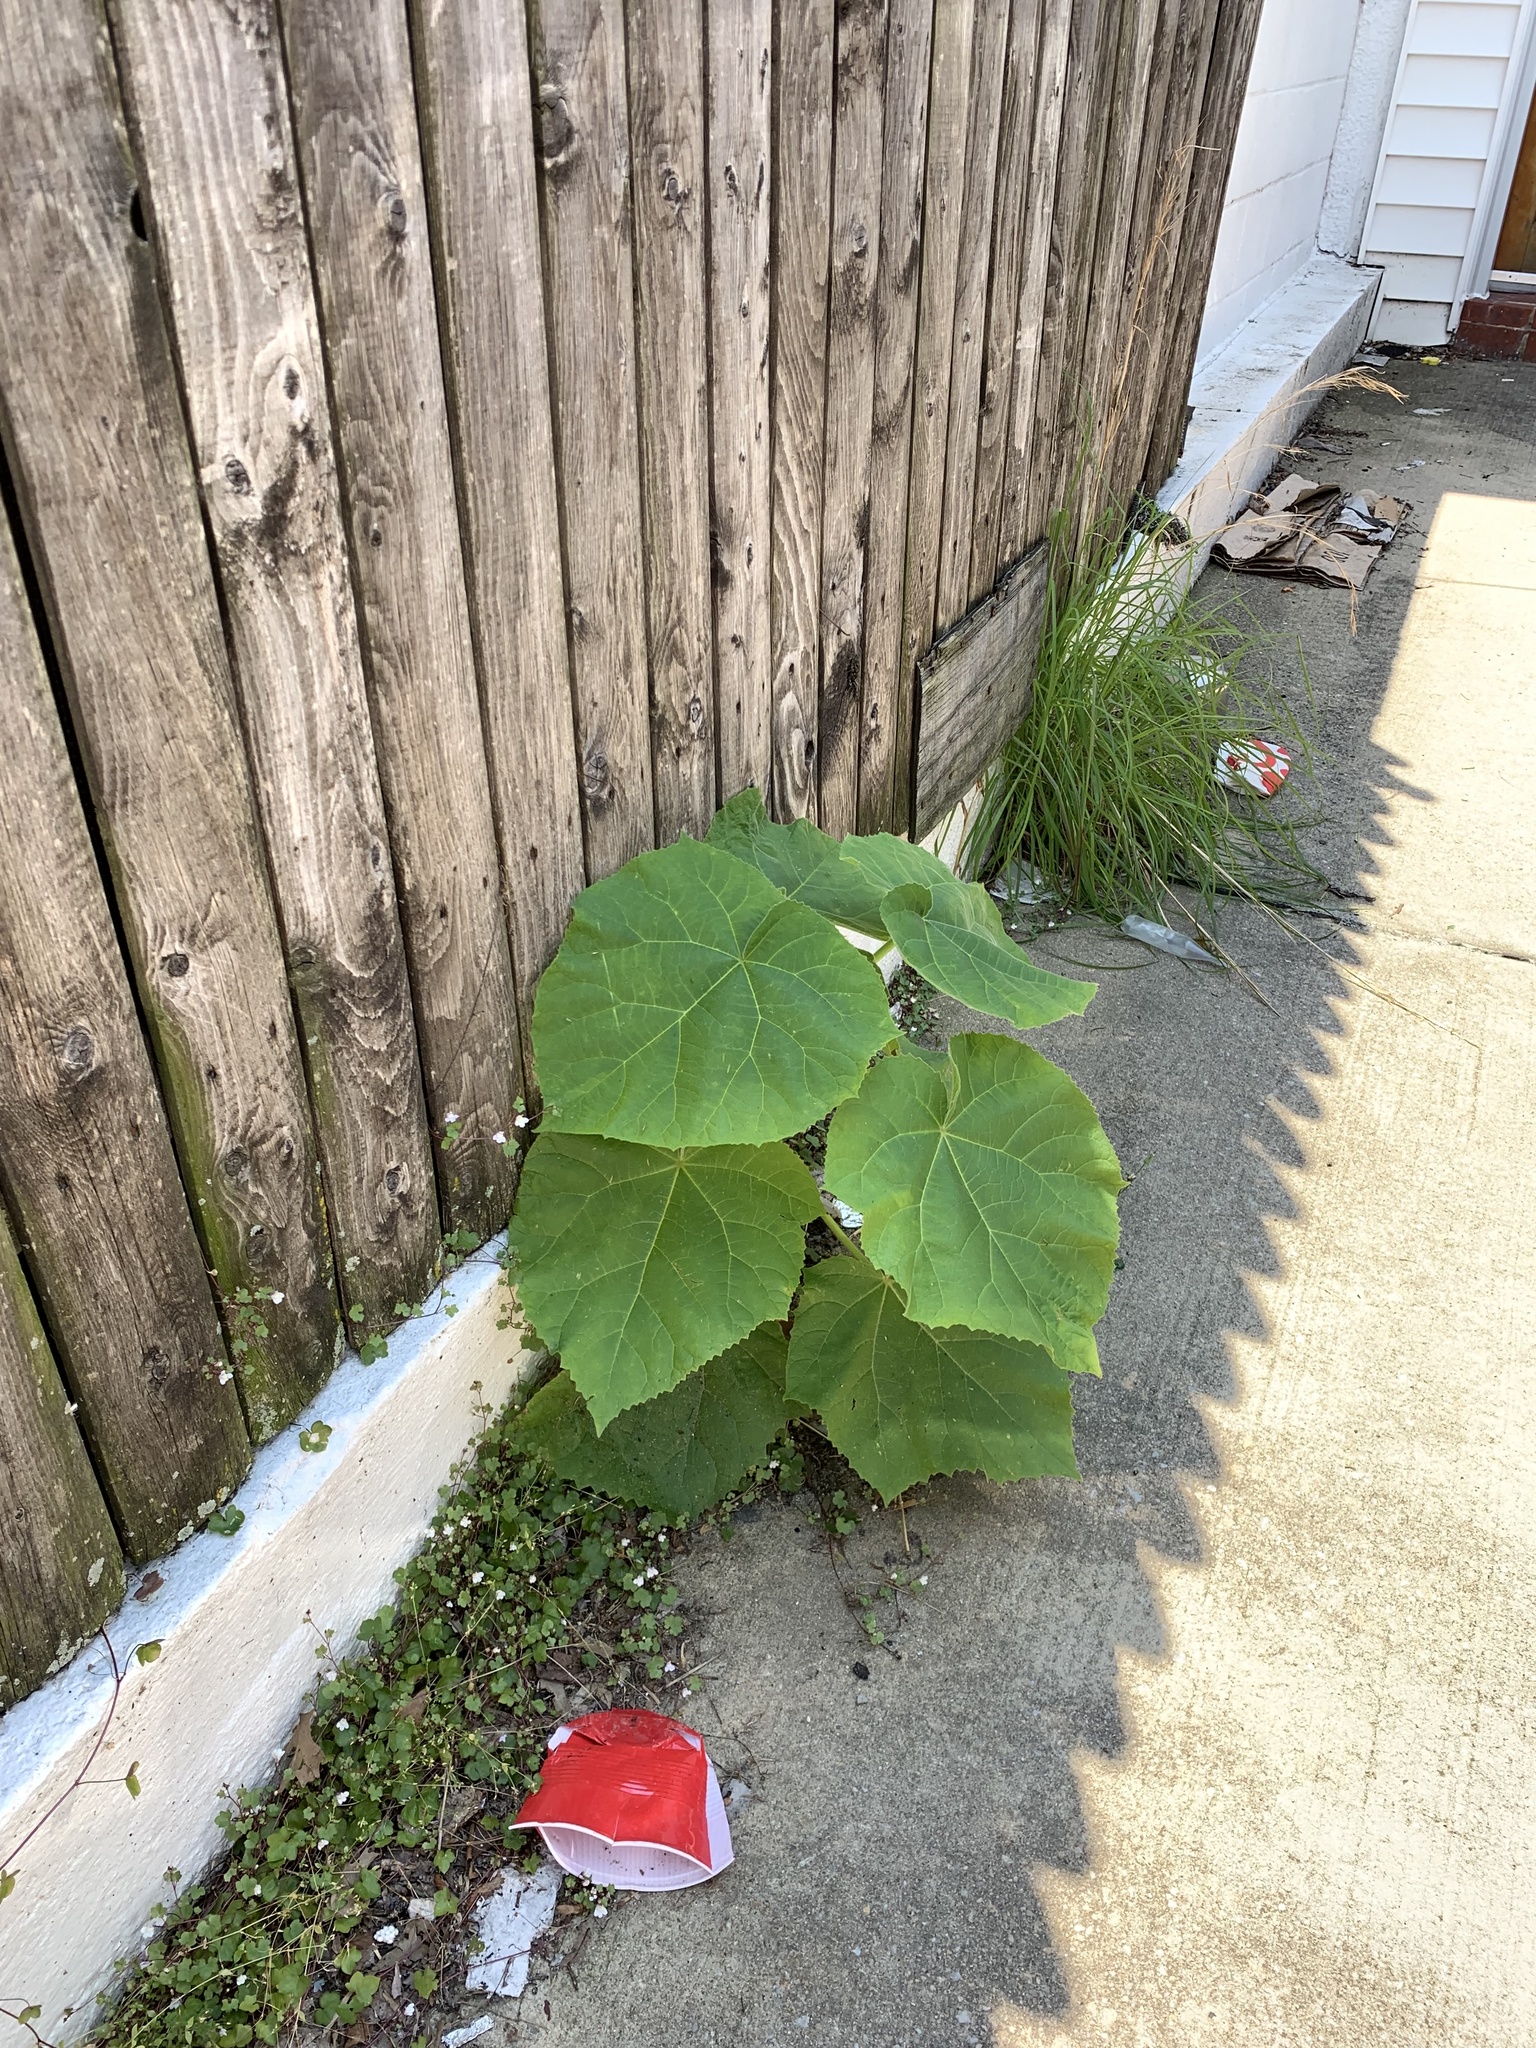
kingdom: Plantae
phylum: Tracheophyta
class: Magnoliopsida
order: Lamiales
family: Paulowniaceae
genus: Paulownia
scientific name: Paulownia tomentosa
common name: Foxglove-tree
